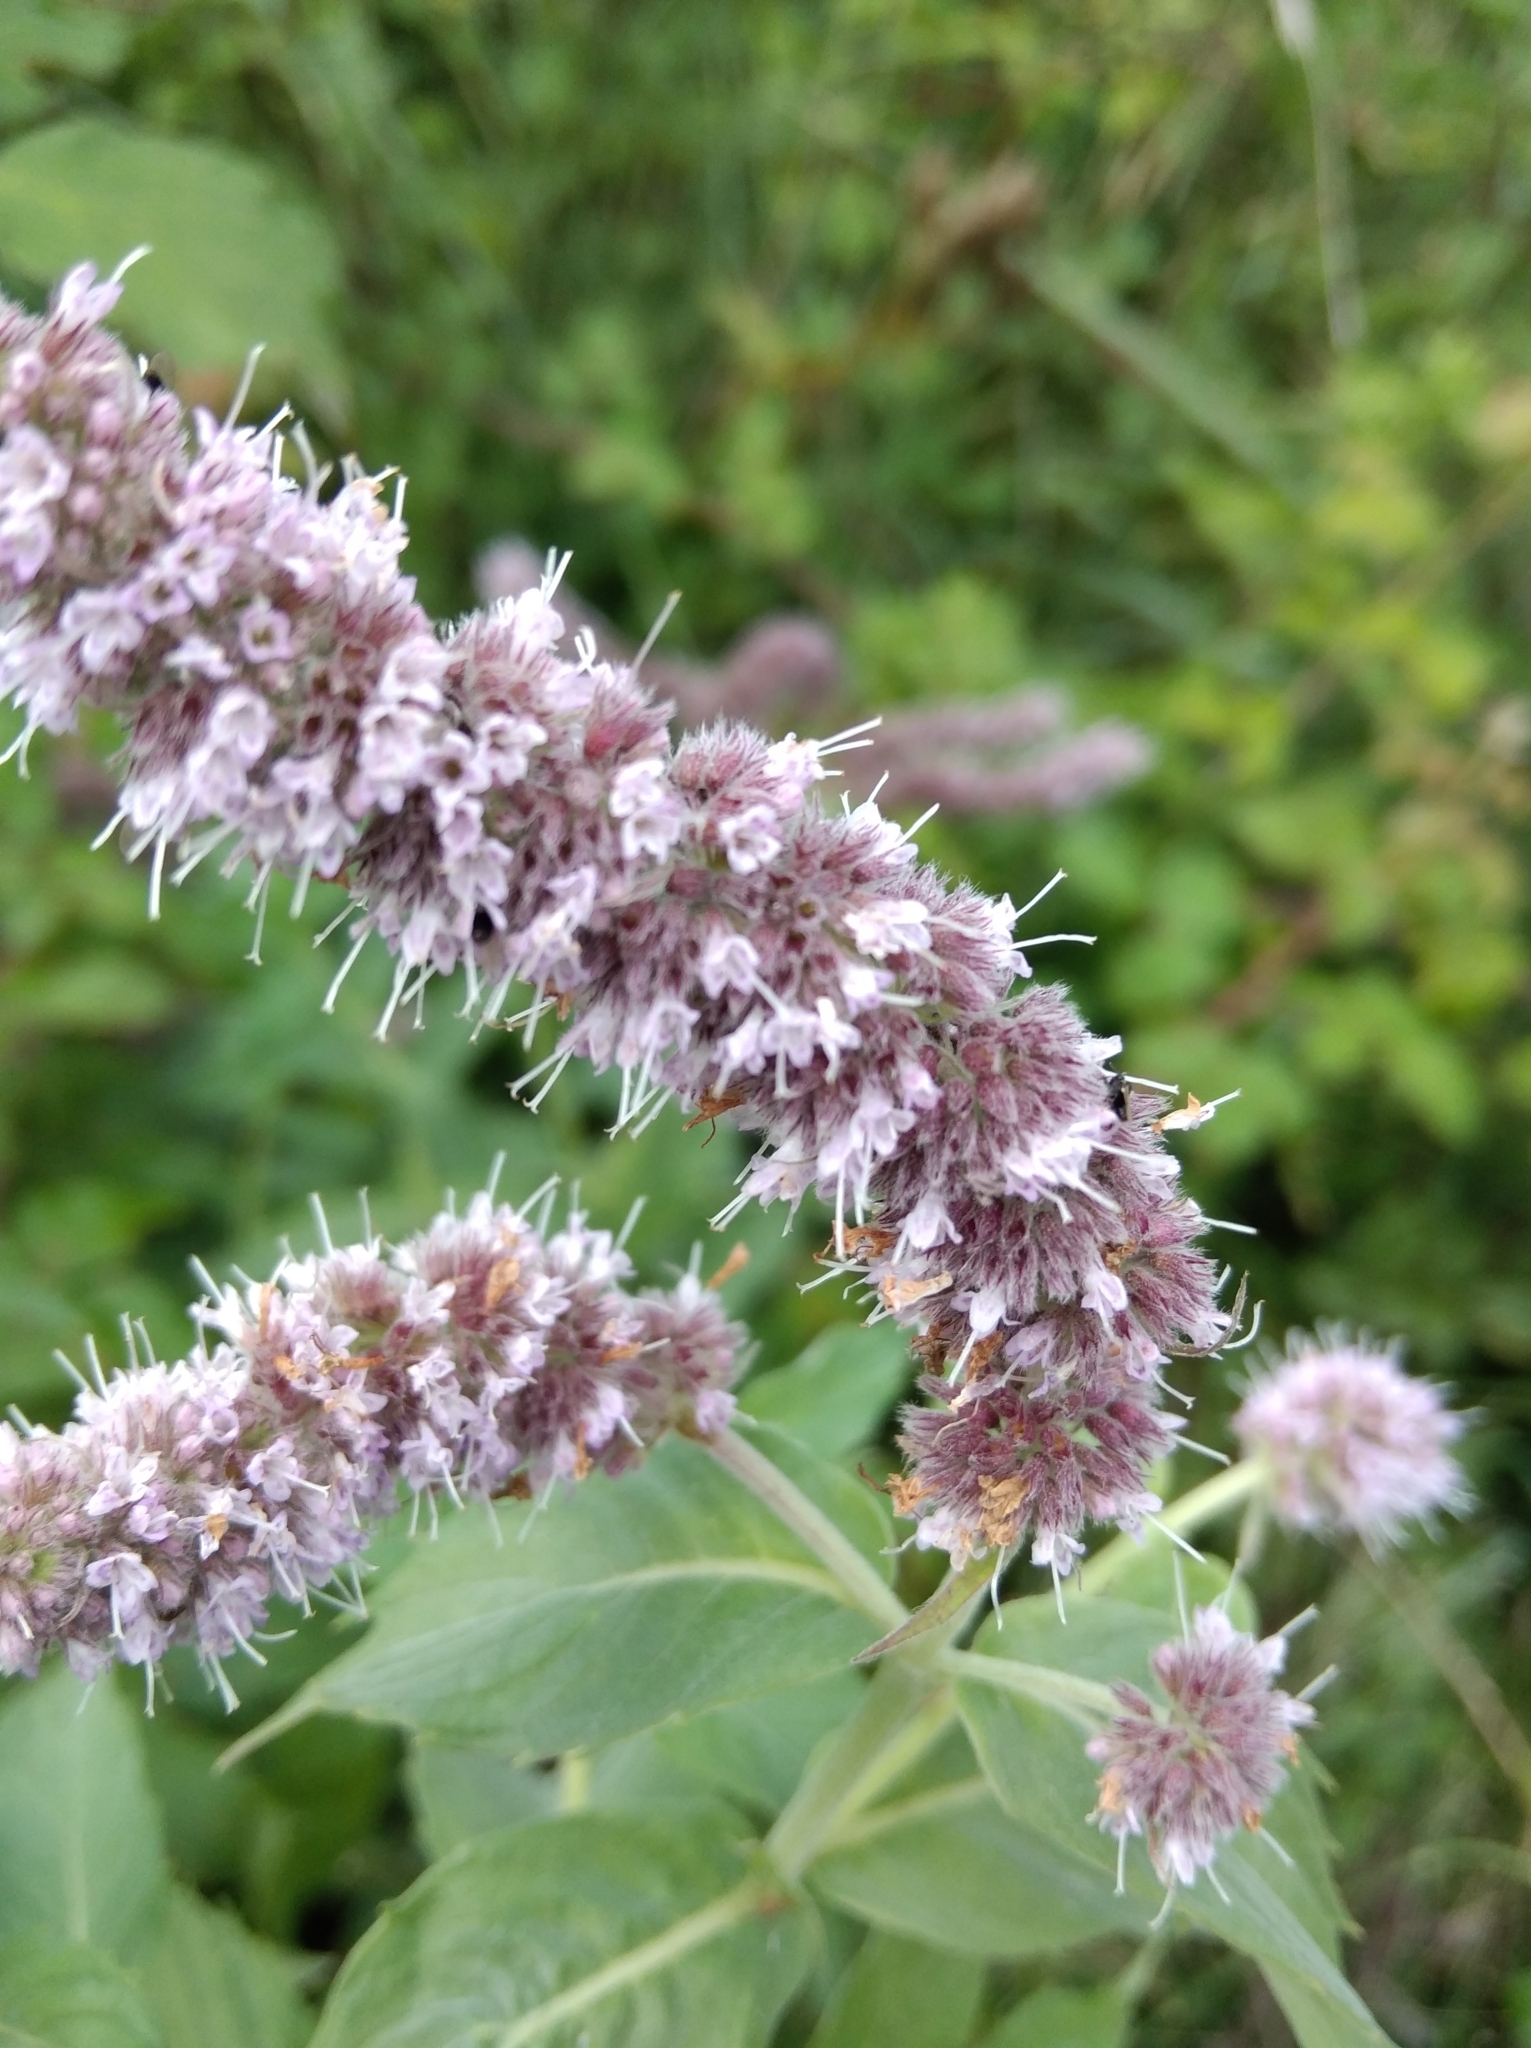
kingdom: Plantae
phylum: Tracheophyta
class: Magnoliopsida
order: Lamiales
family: Lamiaceae
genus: Mentha
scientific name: Mentha longifolia
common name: Horse mint
